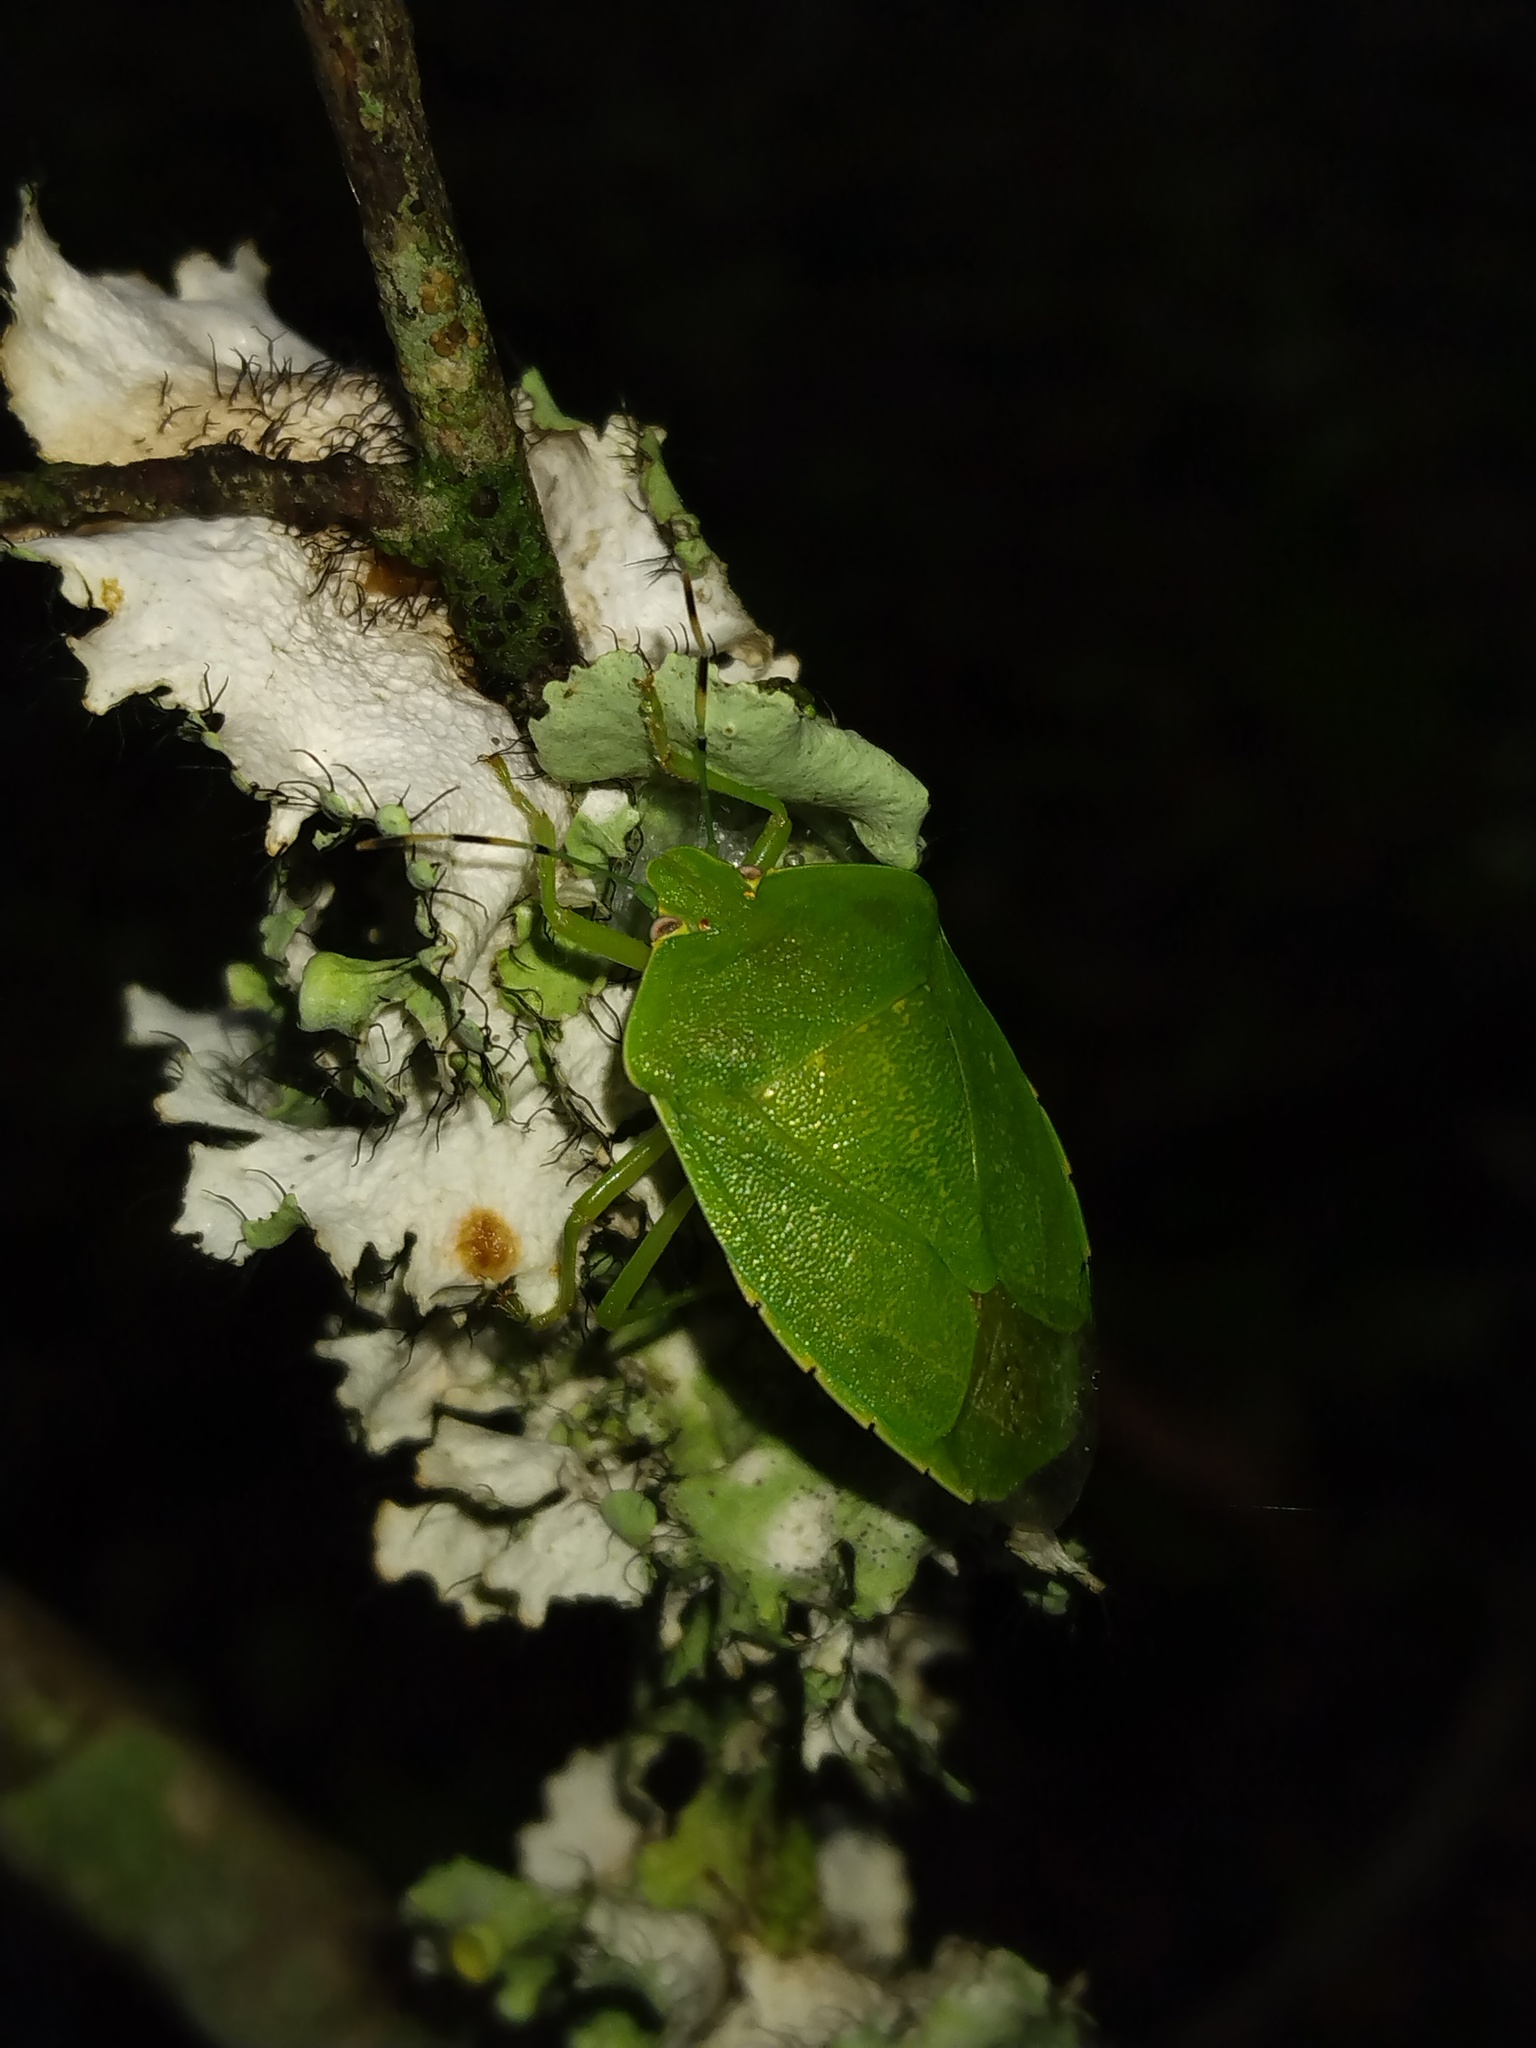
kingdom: Animalia
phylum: Arthropoda
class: Insecta
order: Hemiptera
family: Pentatomidae
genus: Chinavia
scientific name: Chinavia hilaris
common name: Green stink bug
